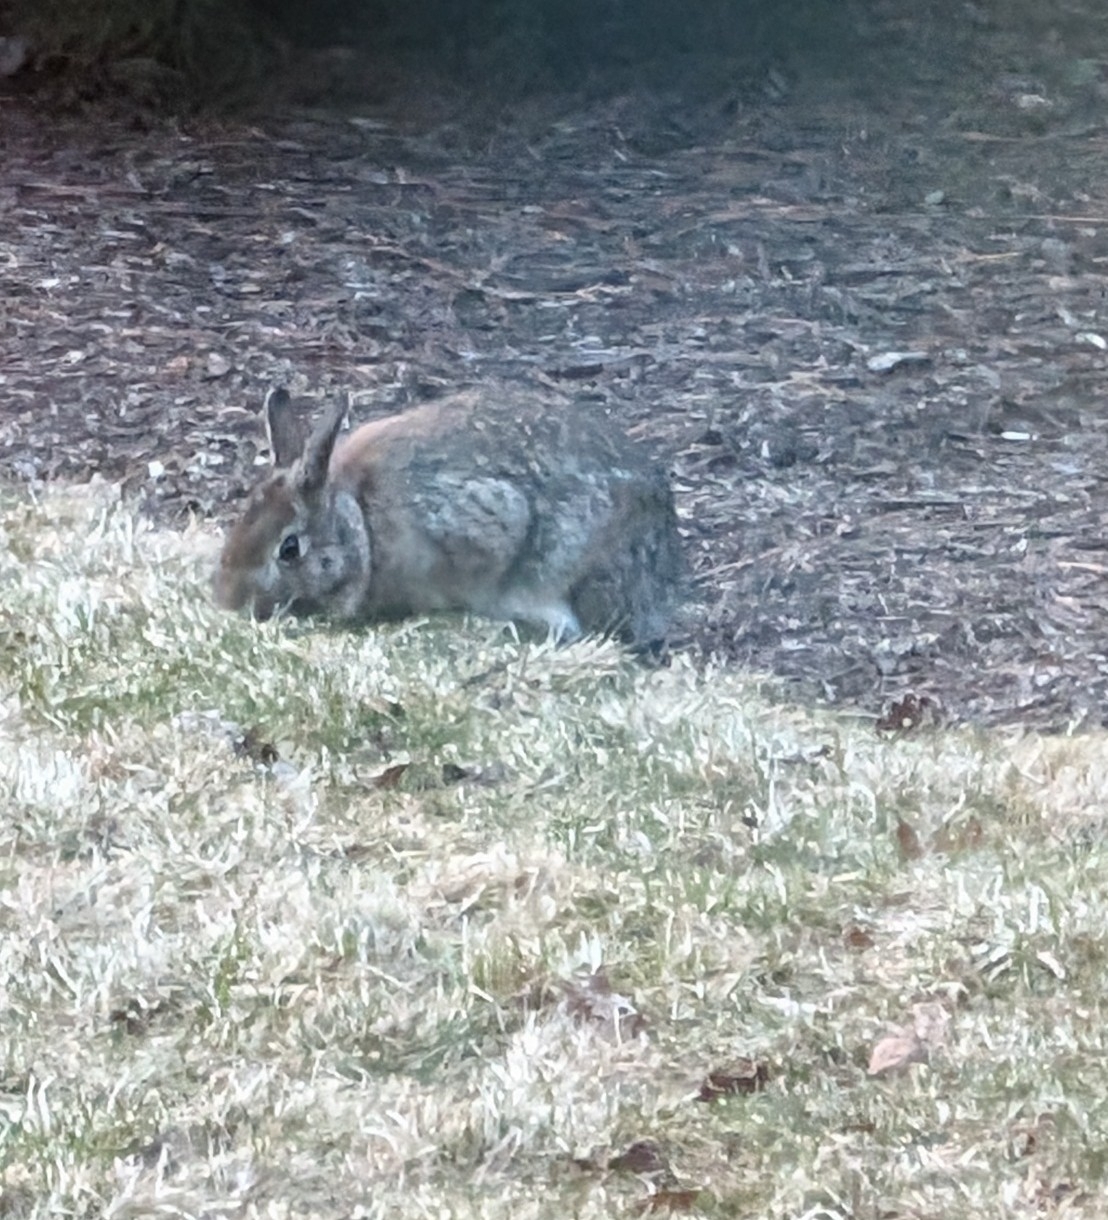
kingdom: Animalia
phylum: Chordata
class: Mammalia
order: Lagomorpha
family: Leporidae
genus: Sylvilagus
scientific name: Sylvilagus floridanus
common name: Eastern cottontail
